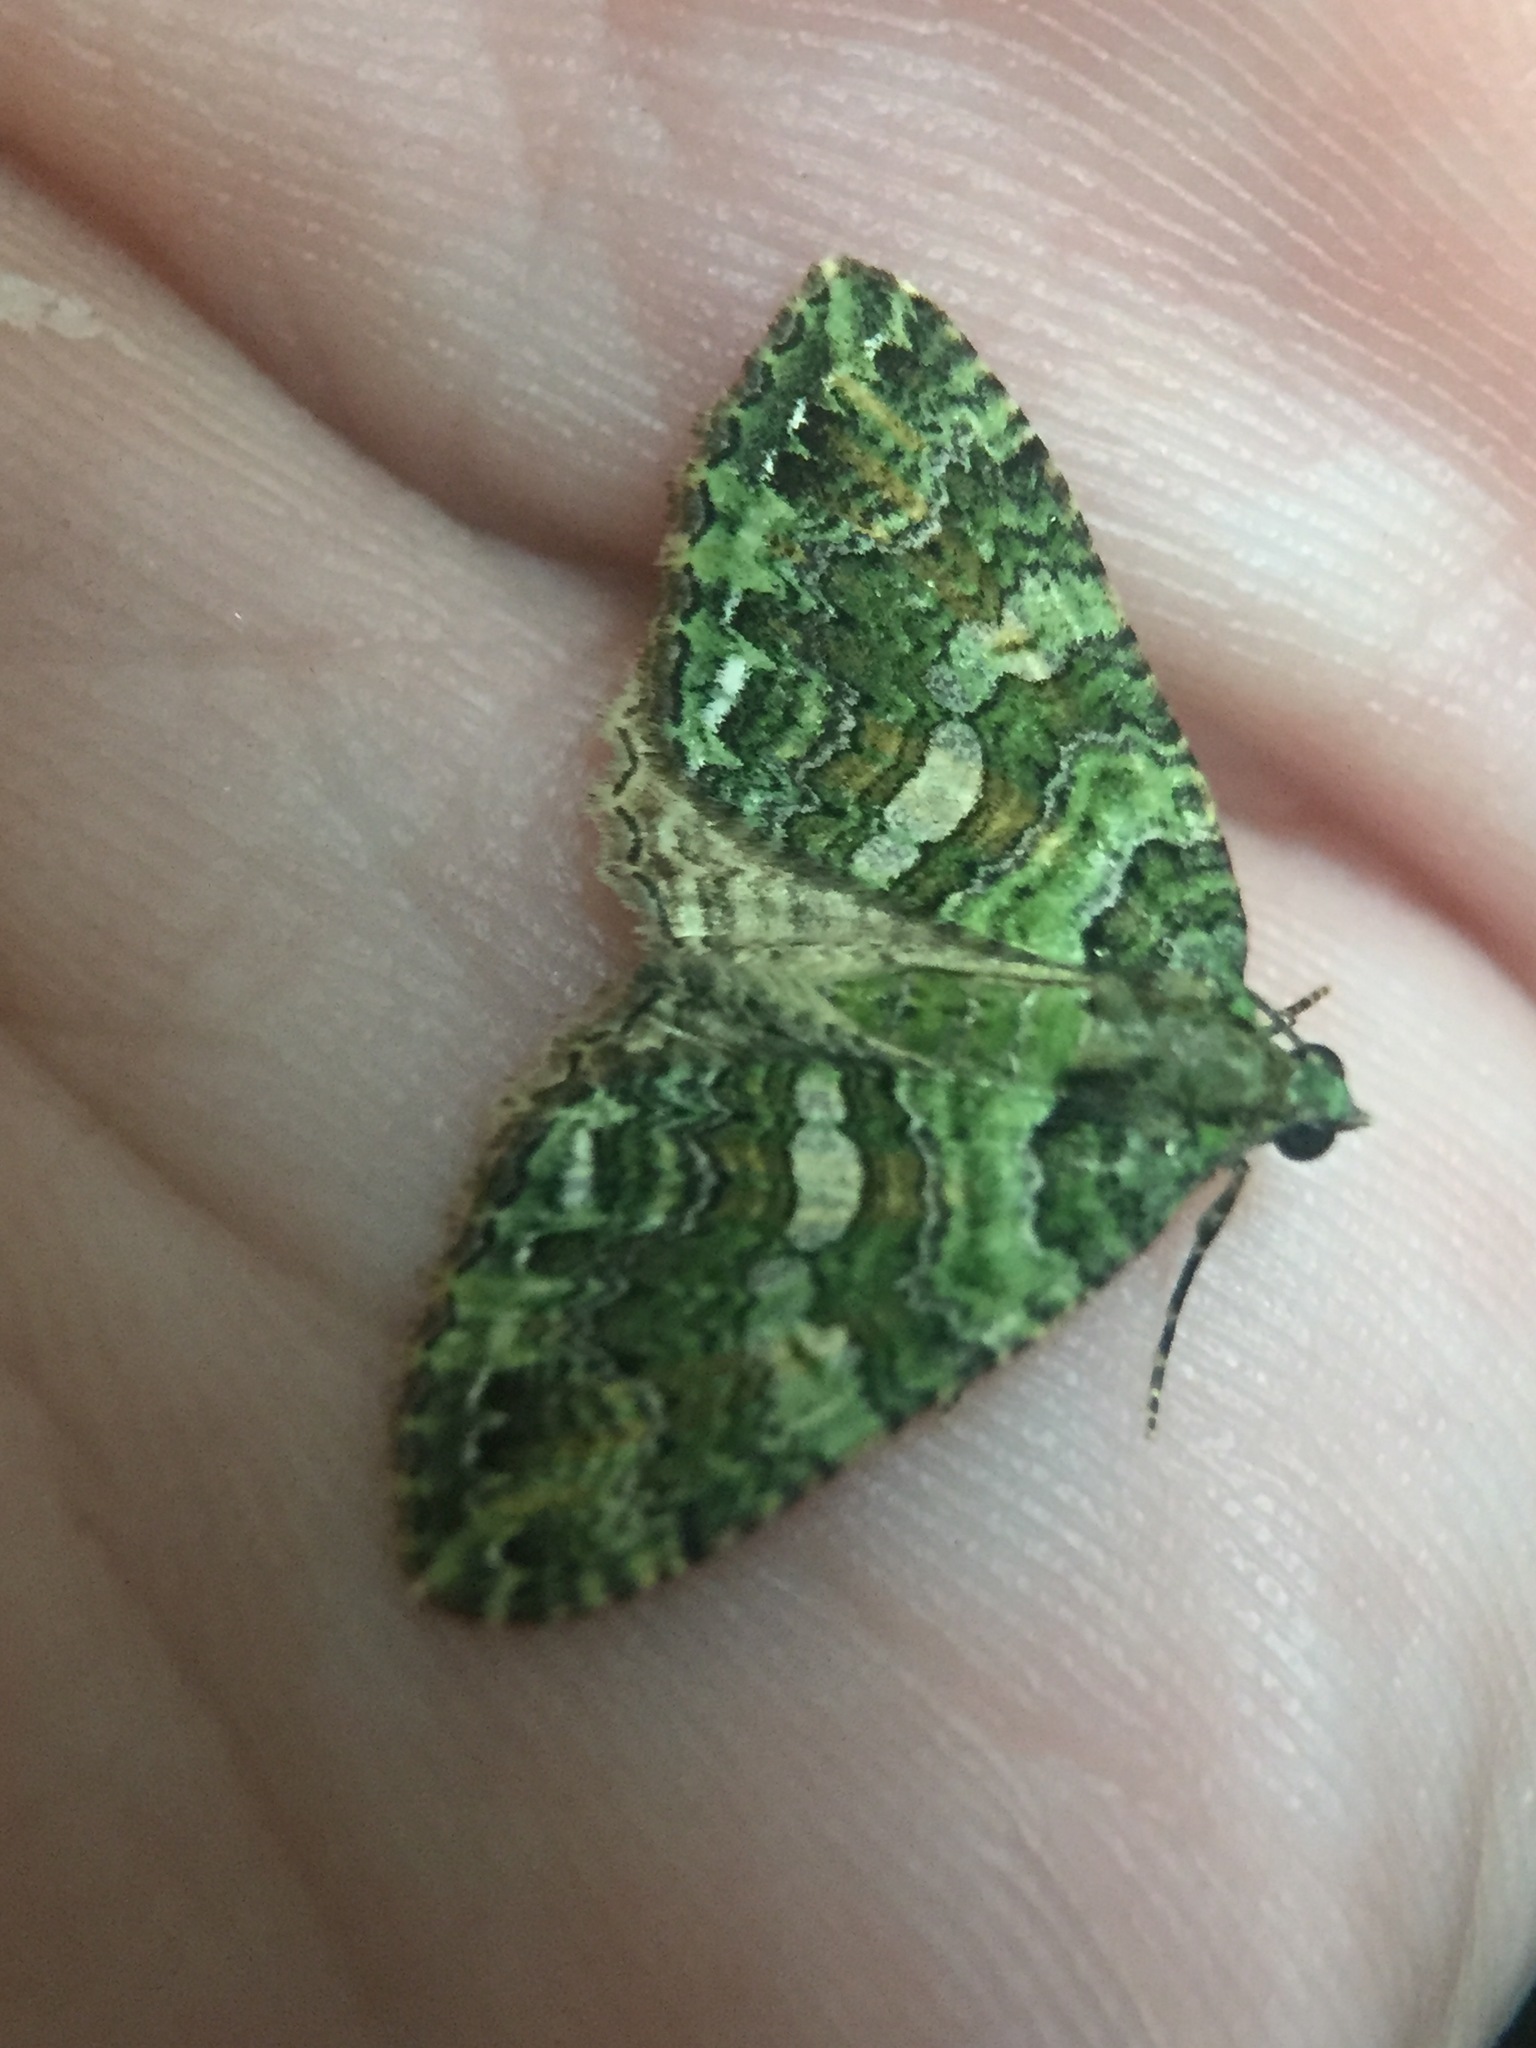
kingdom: Animalia
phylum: Arthropoda
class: Insecta
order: Lepidoptera
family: Geometridae
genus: Austrocidaria
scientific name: Austrocidaria similata
